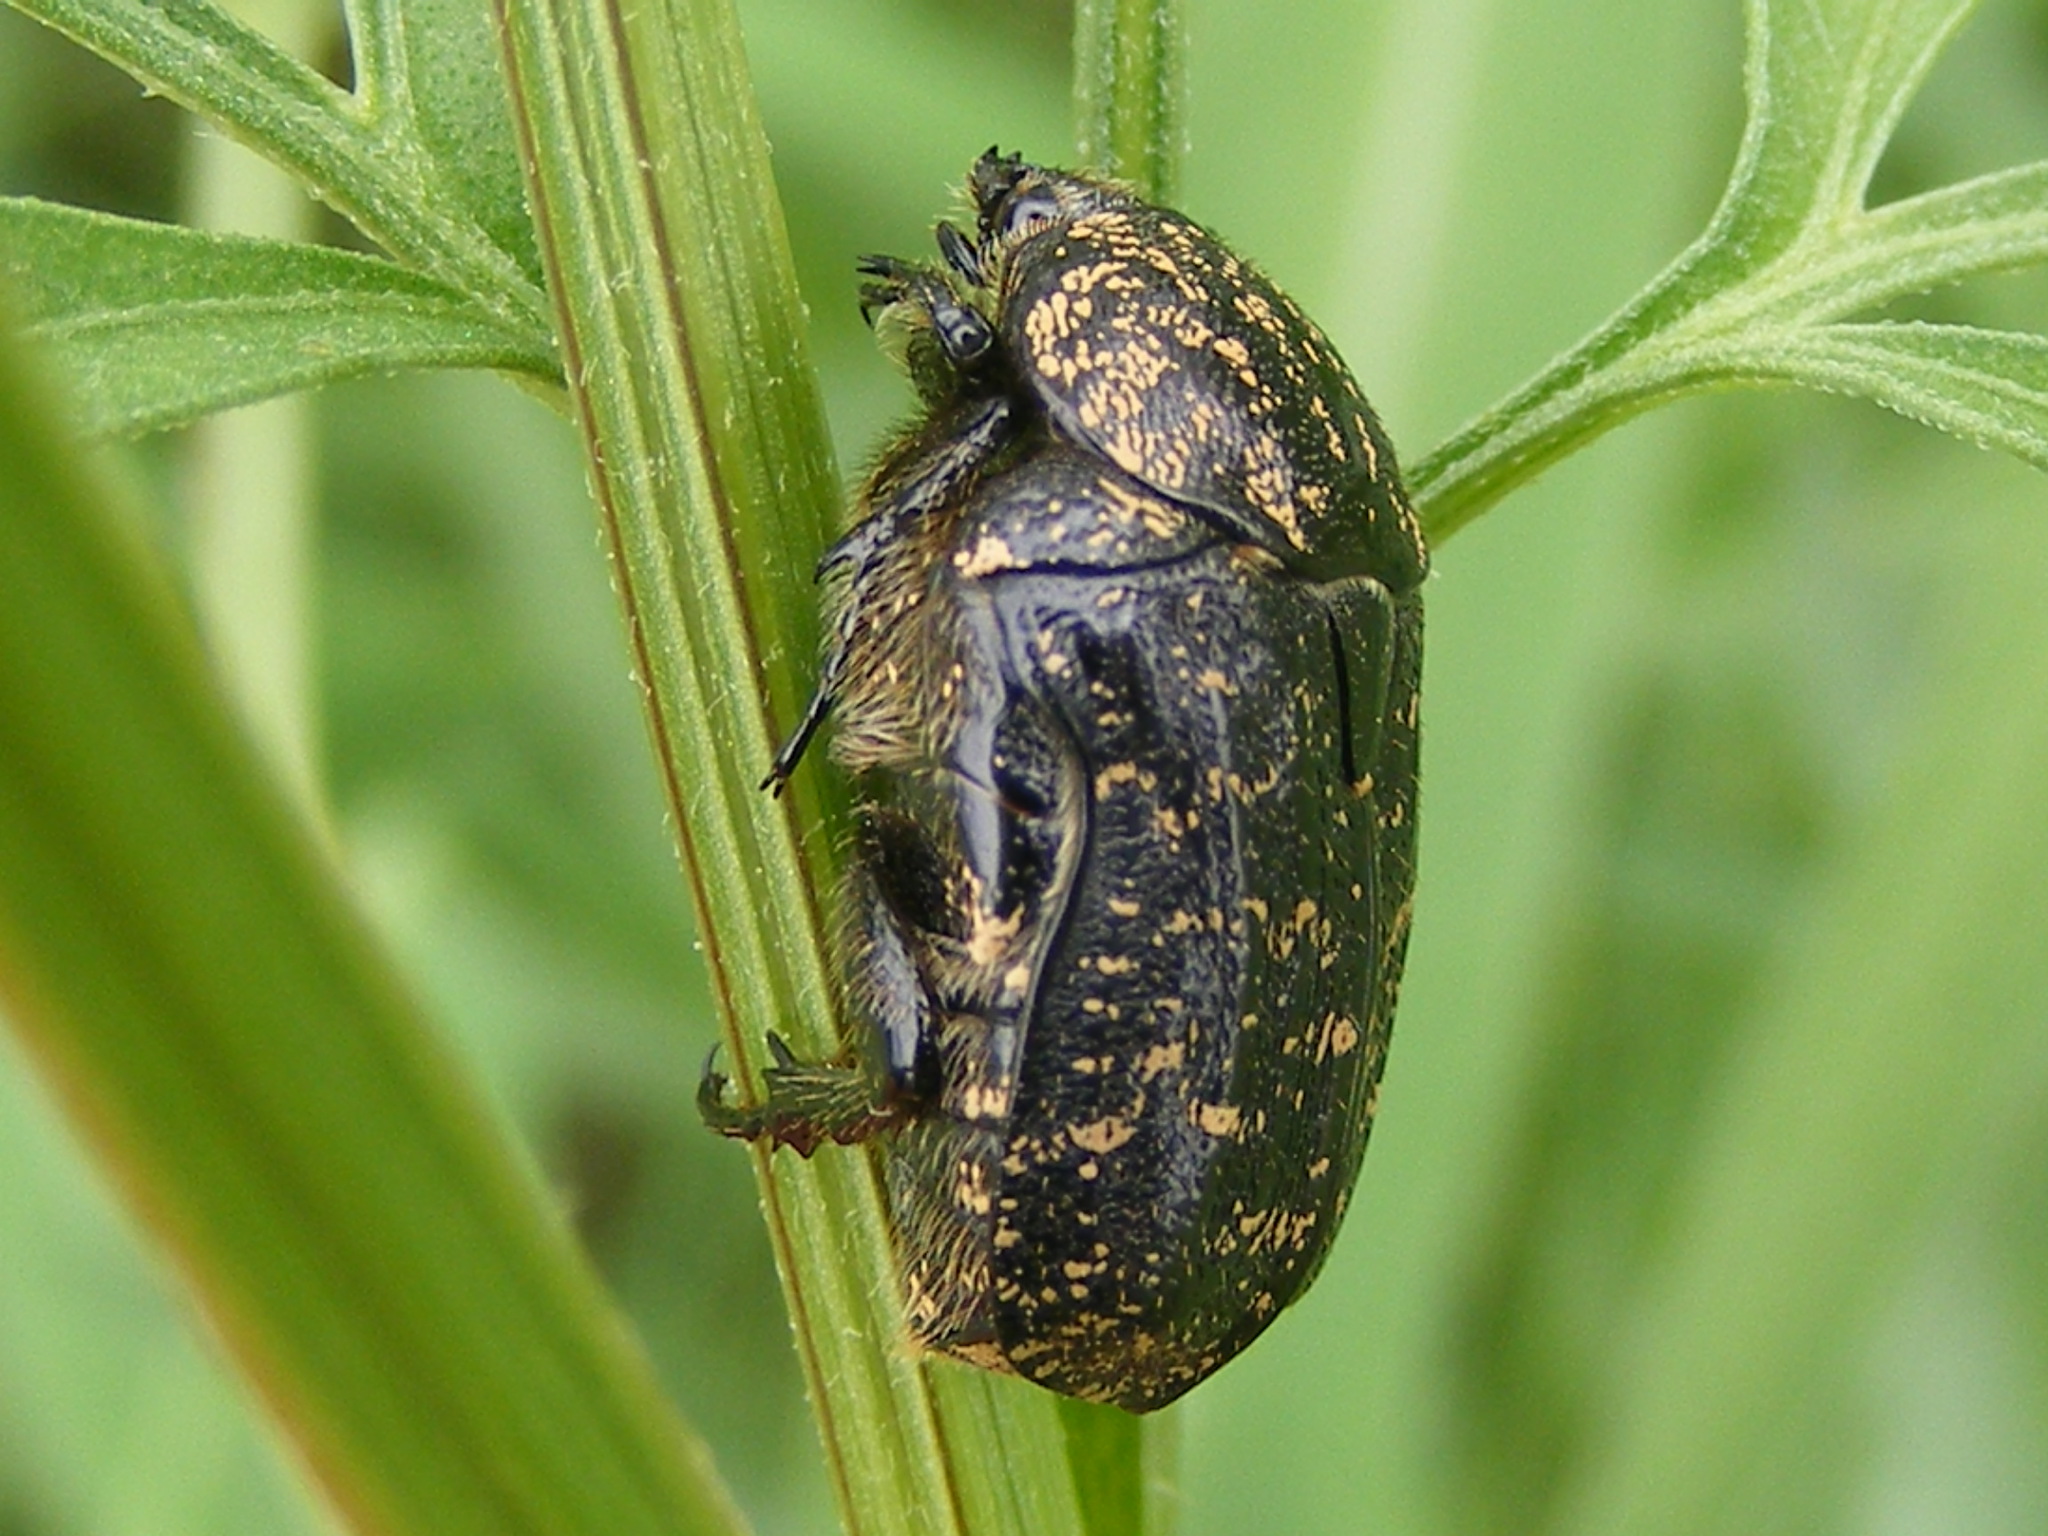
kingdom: Animalia
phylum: Arthropoda
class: Insecta
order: Coleoptera
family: Scarabaeidae
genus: Xeloma
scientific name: Xeloma maura
